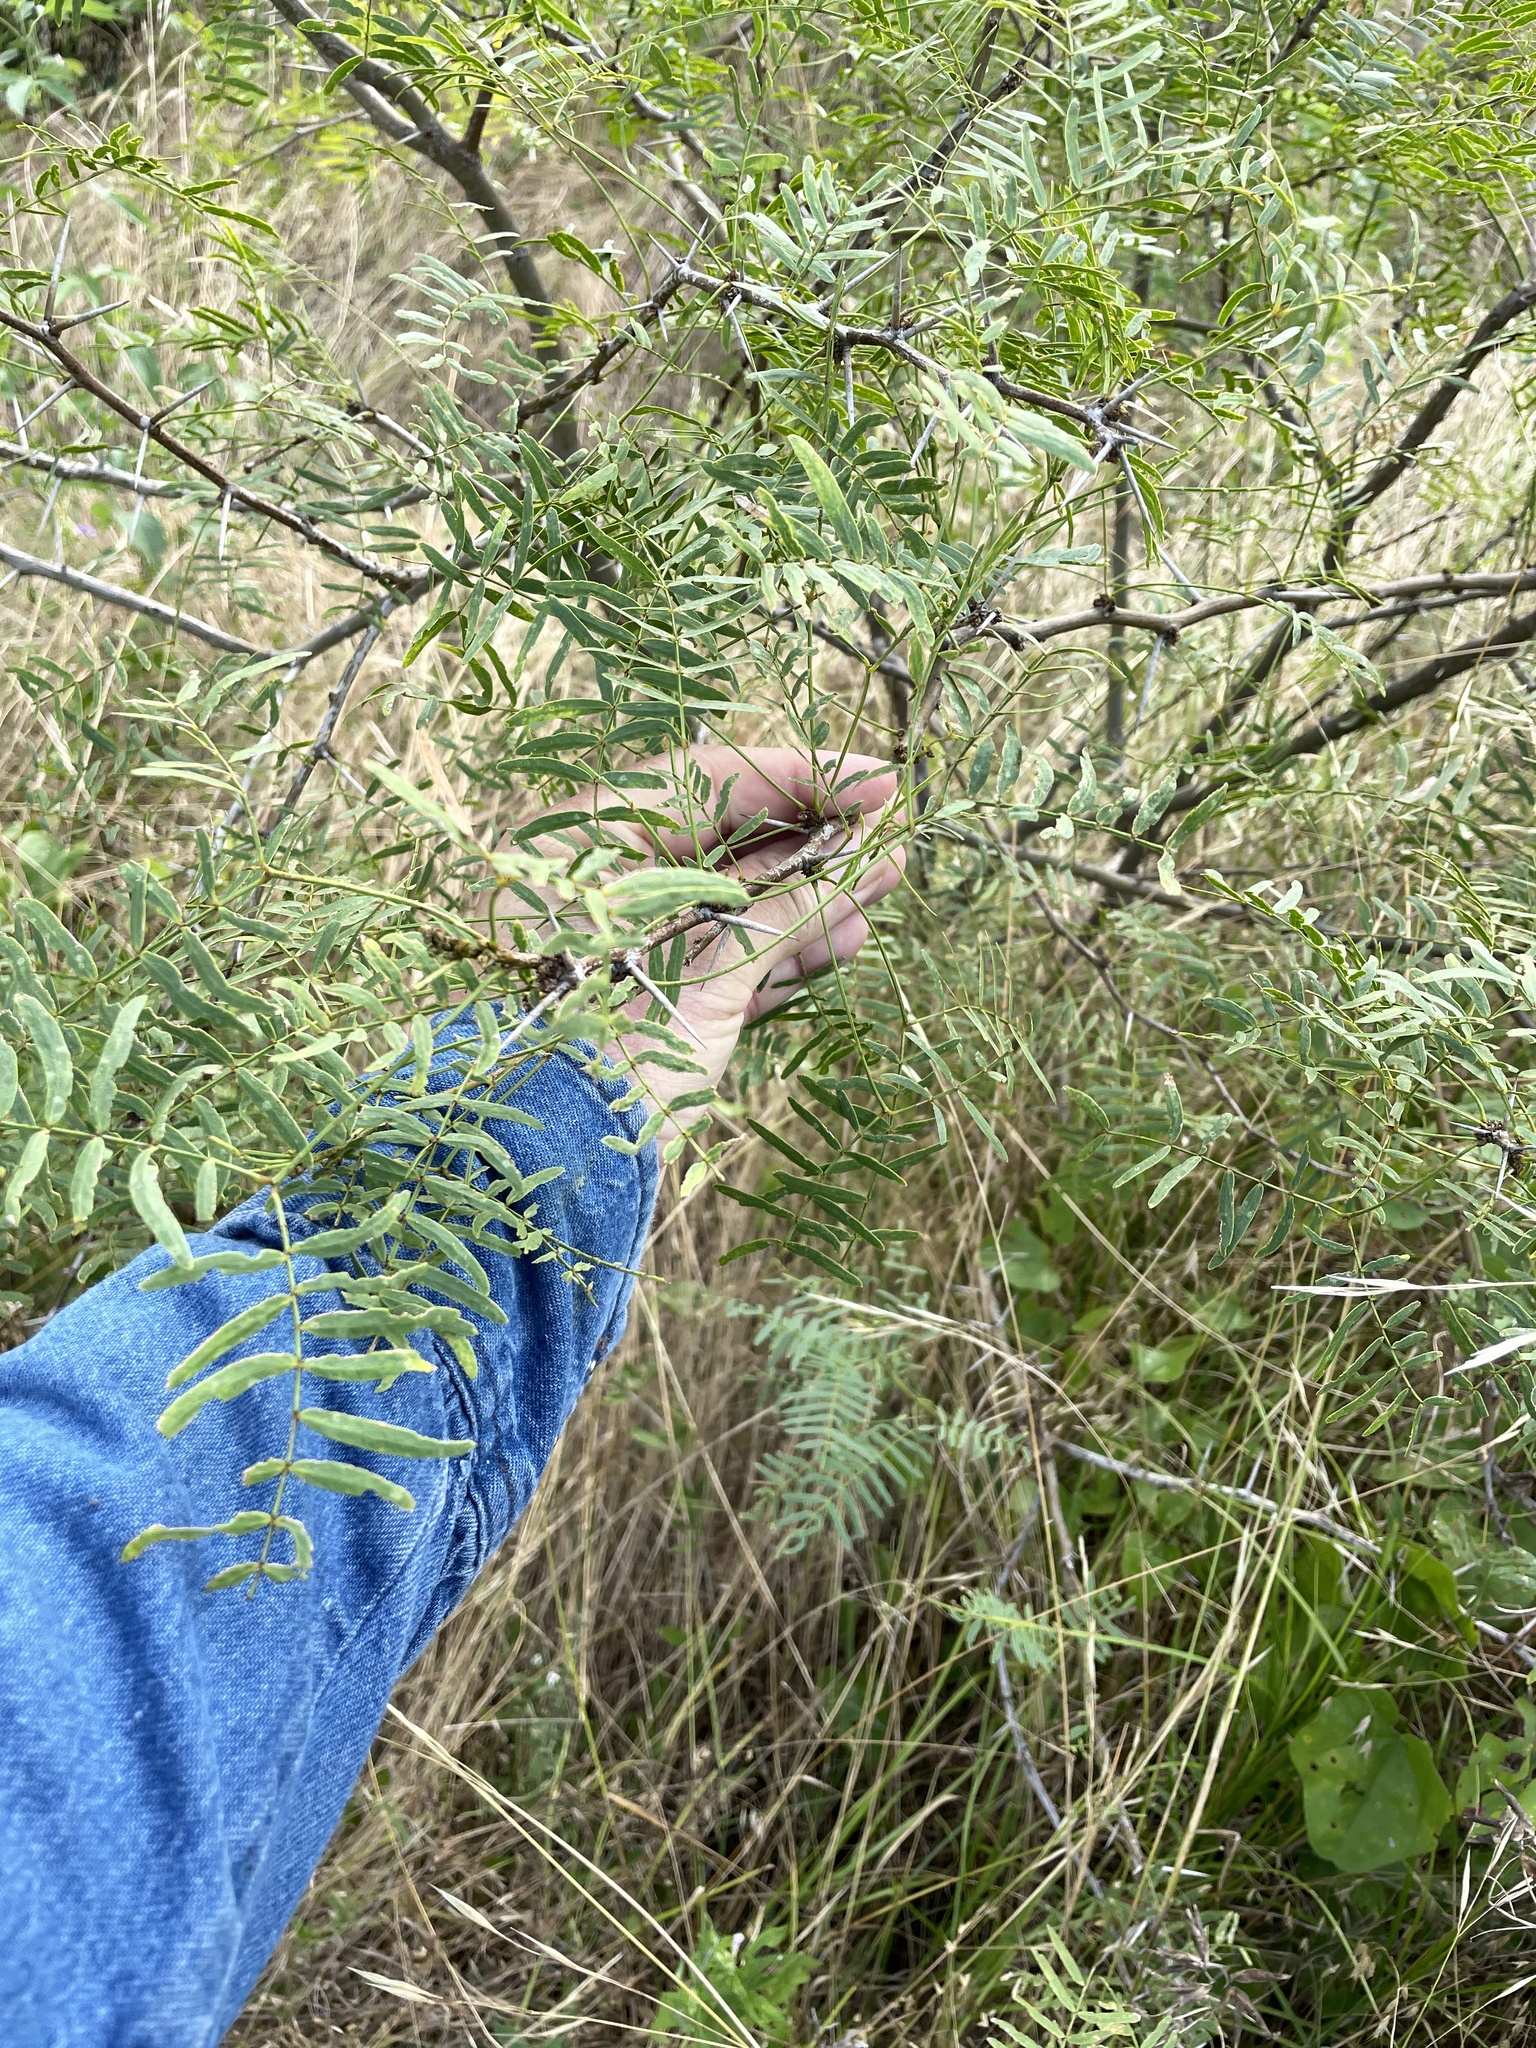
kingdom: Plantae
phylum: Tracheophyta
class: Magnoliopsida
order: Fabales
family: Fabaceae
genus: Prosopis
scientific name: Prosopis glandulosa
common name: Honey mesquite
